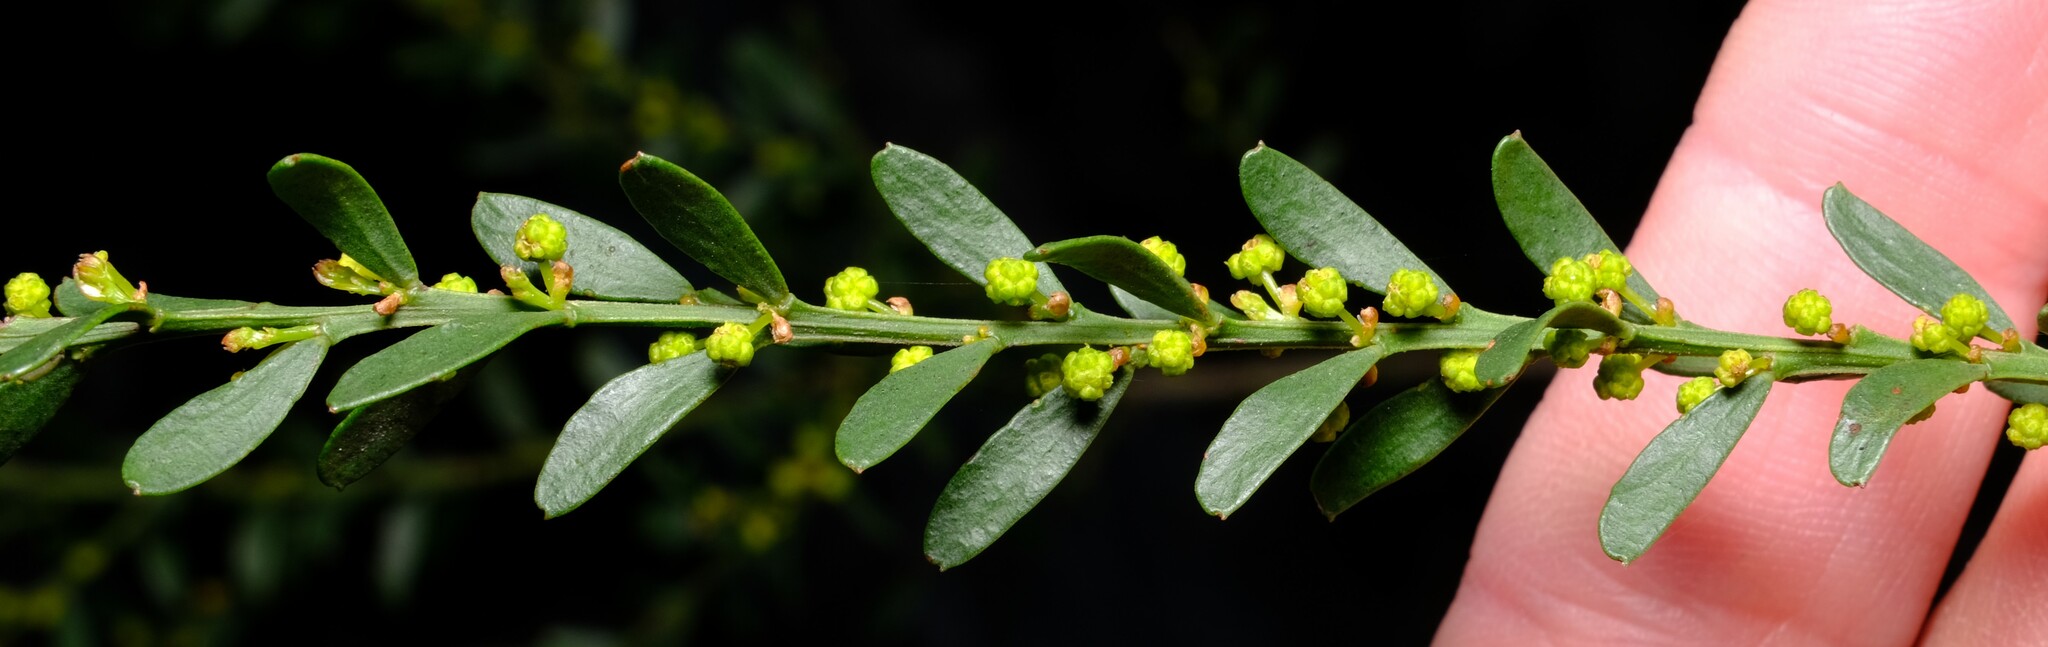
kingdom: Plantae
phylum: Tracheophyta
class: Magnoliopsida
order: Fabales
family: Fabaceae
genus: Acacia
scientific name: Acacia acinacea
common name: Gold-dust acacia
